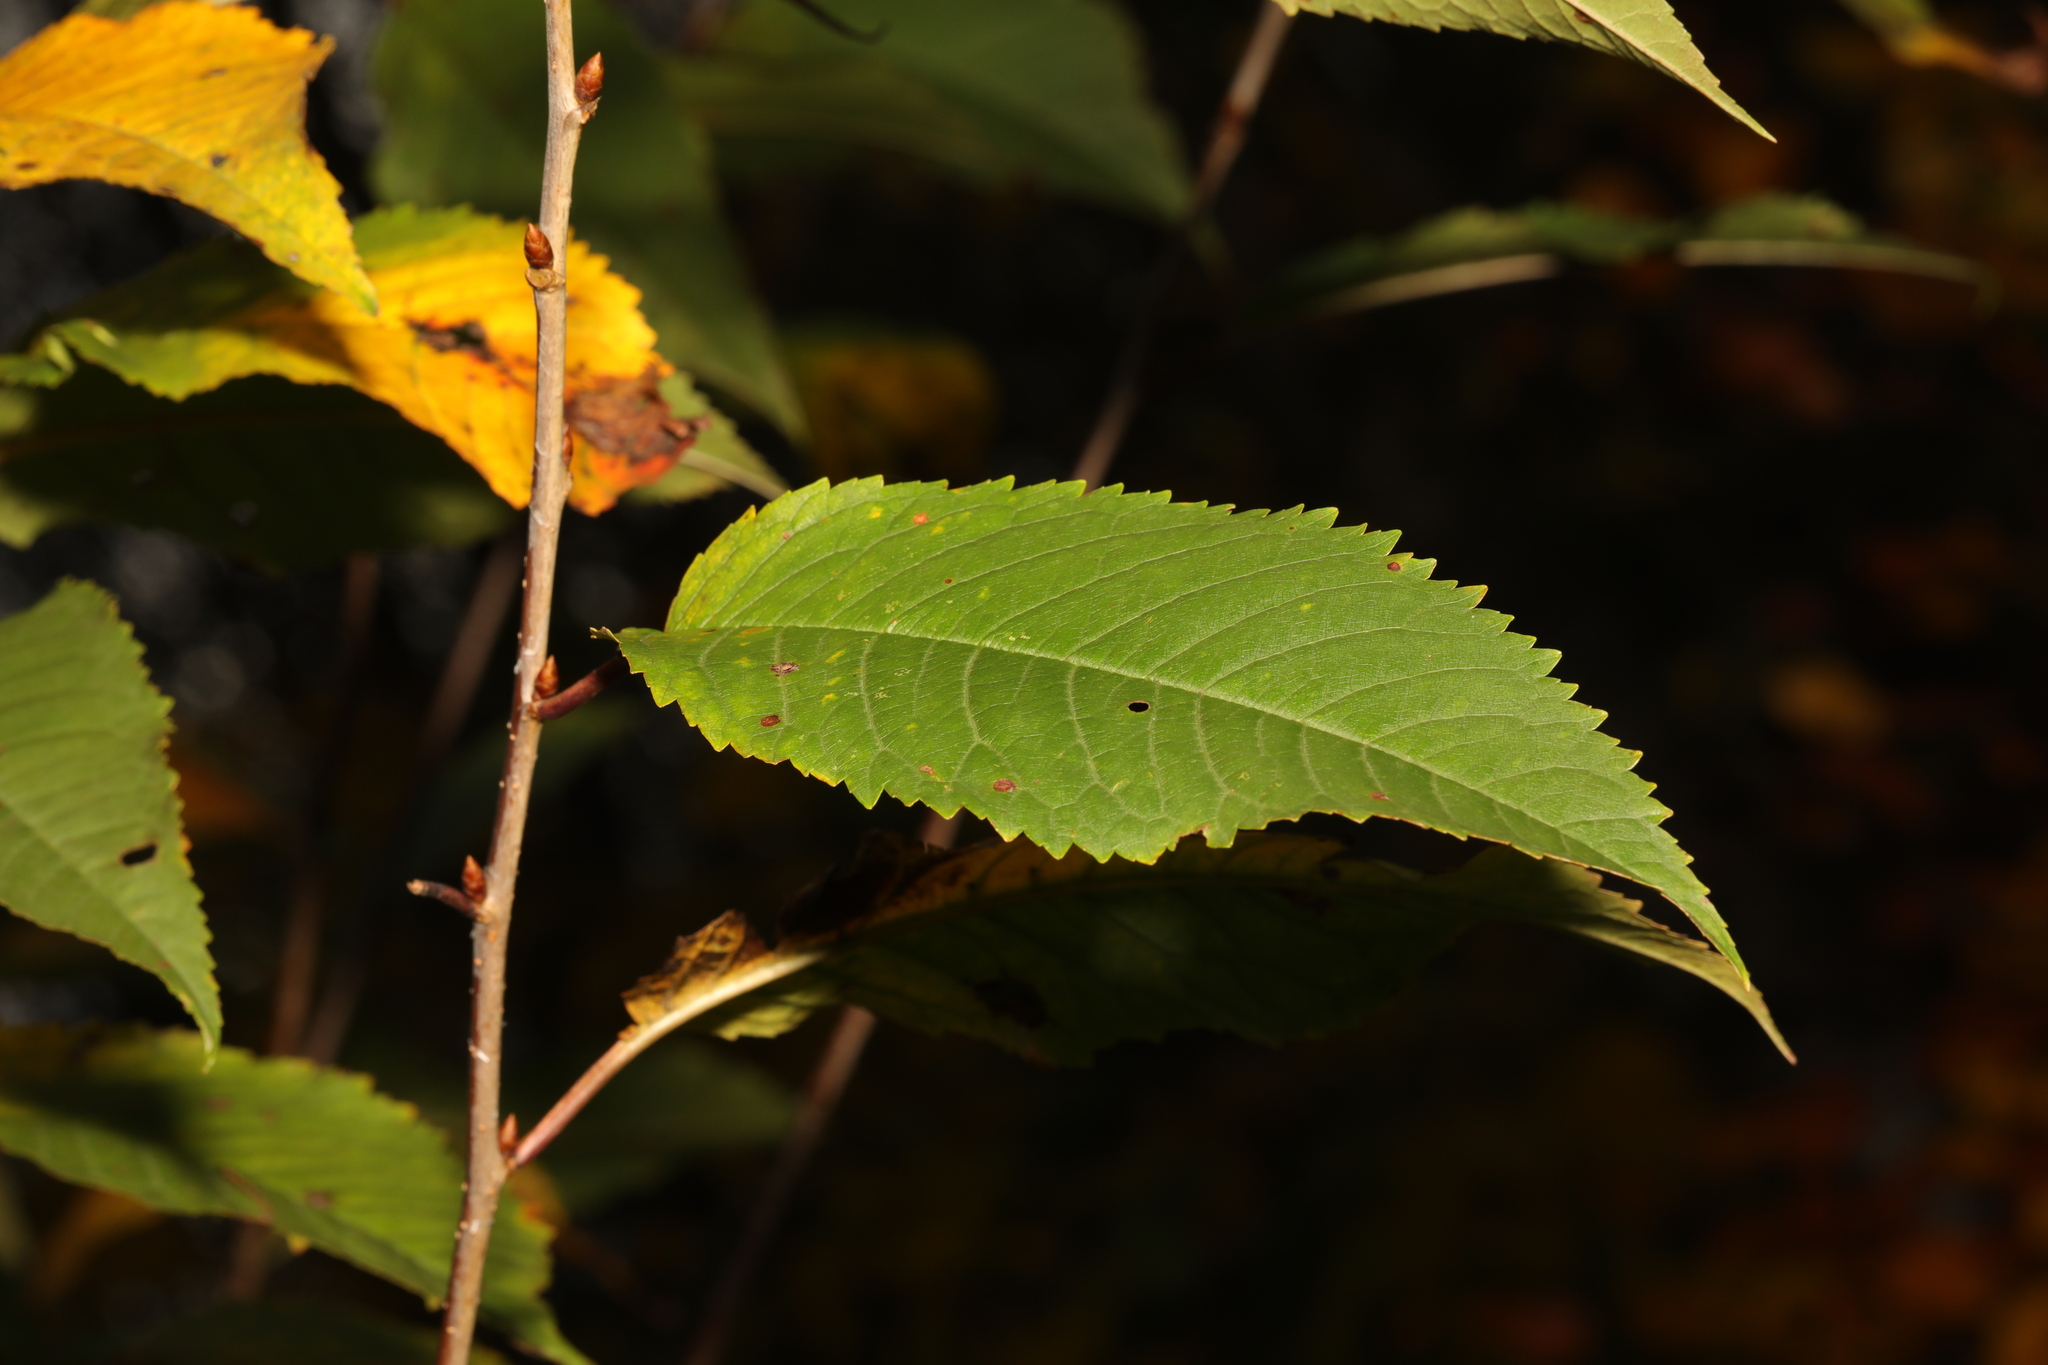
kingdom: Plantae
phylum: Tracheophyta
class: Magnoliopsida
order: Rosales
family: Rosaceae
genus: Prunus
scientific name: Prunus avium
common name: Sweet cherry
